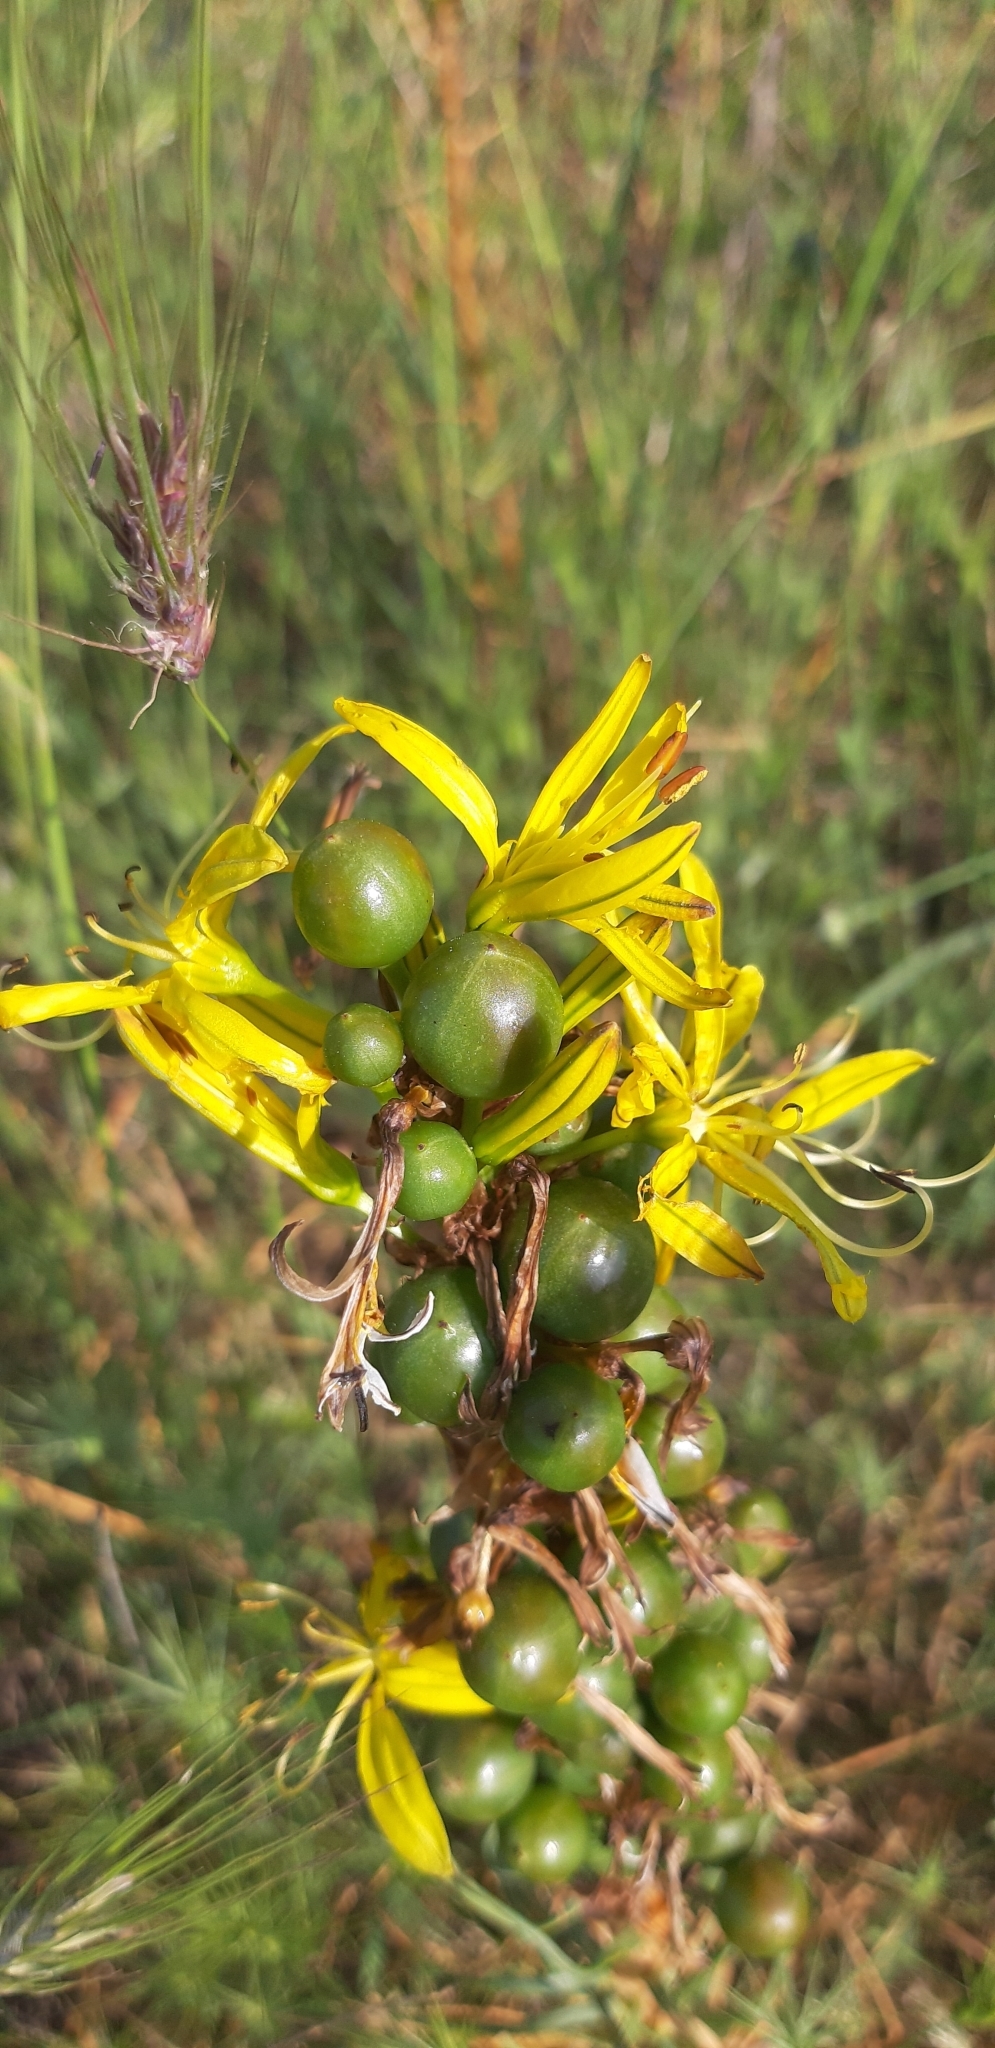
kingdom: Plantae
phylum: Tracheophyta
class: Liliopsida
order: Asparagales
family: Asphodelaceae
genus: Asphodeline
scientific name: Asphodeline lutea
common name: Yellow asphodel
